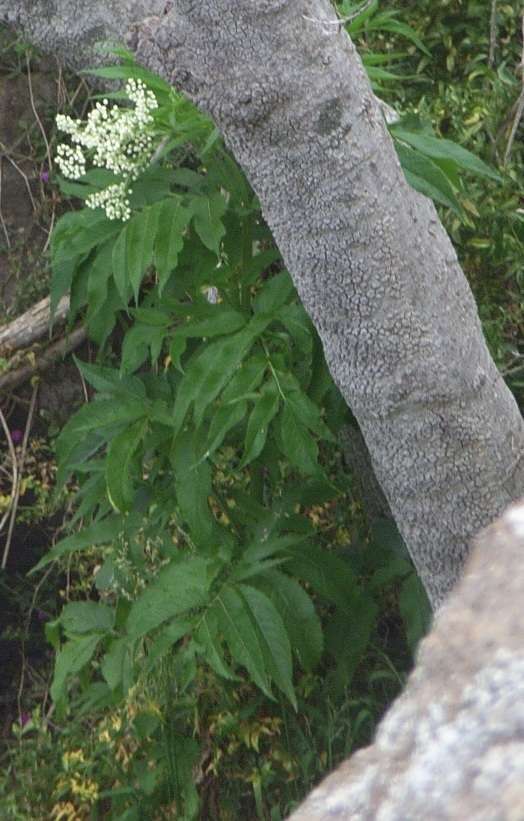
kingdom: Plantae
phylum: Tracheophyta
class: Magnoliopsida
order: Dipsacales
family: Viburnaceae
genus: Sambucus
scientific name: Sambucus gaudichaudiana
